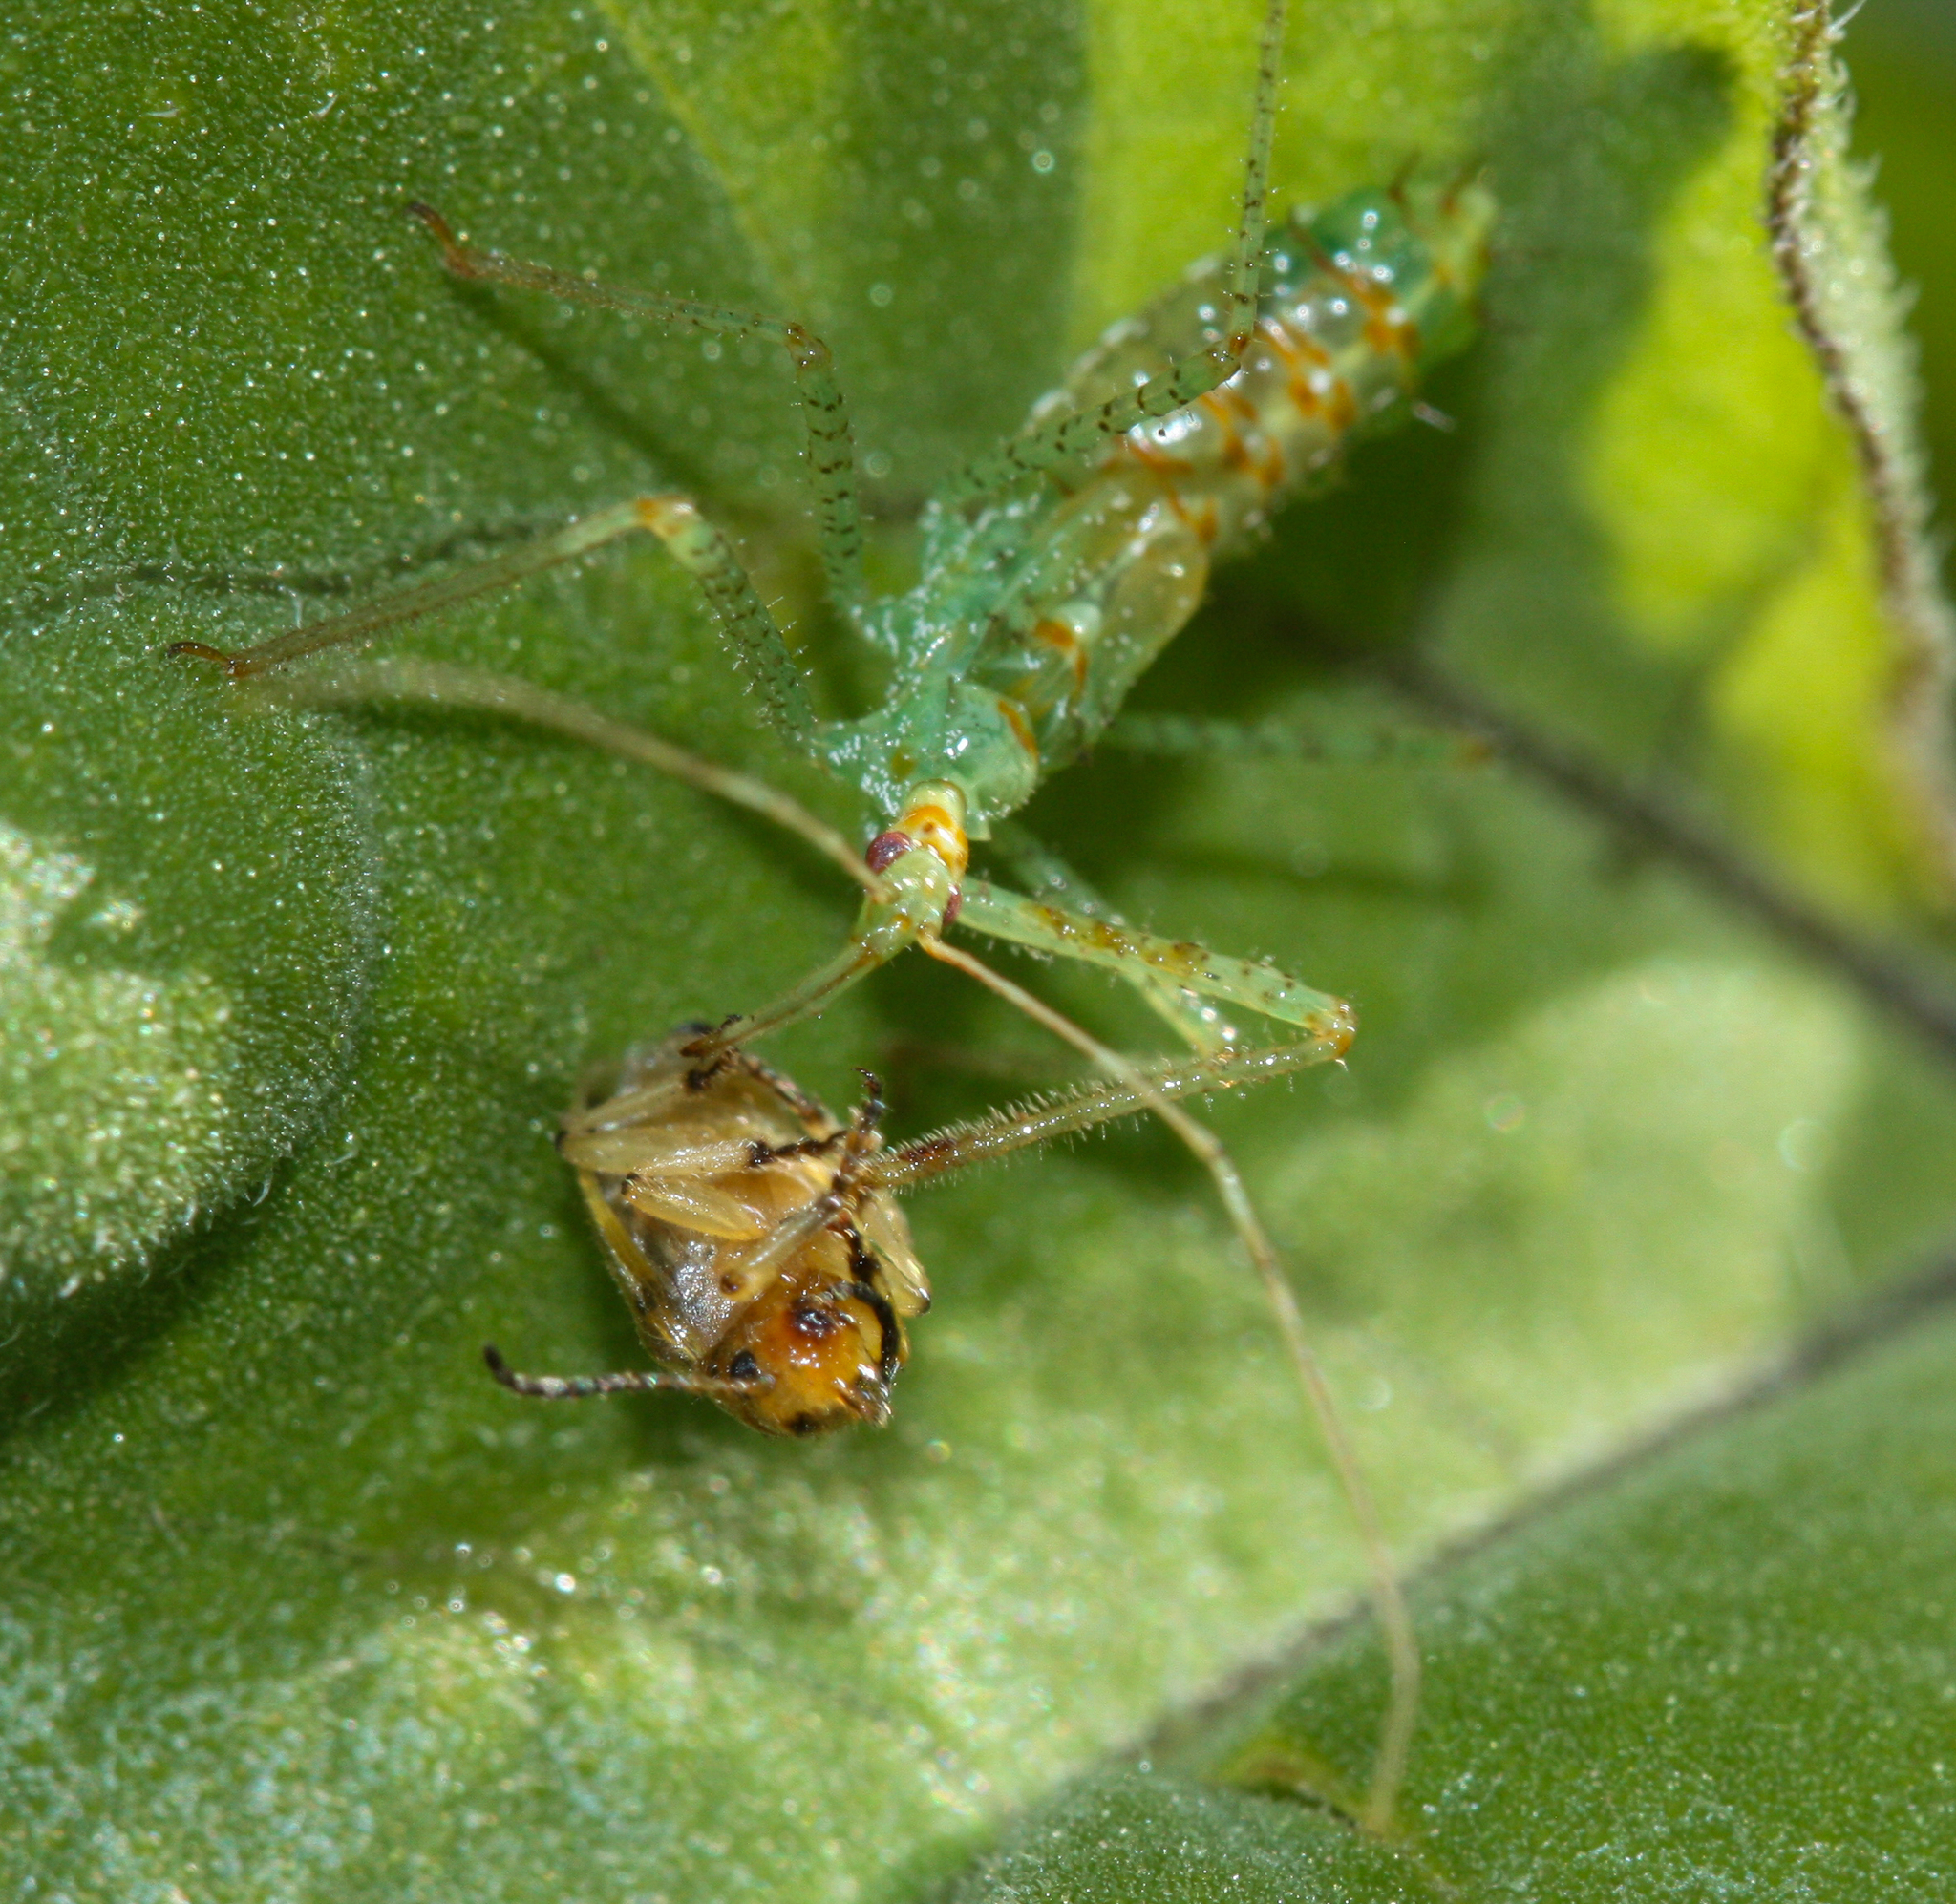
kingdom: Animalia
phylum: Arthropoda
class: Insecta
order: Hemiptera
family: Reduviidae
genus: Zelus
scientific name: Zelus renardii
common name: Assassin bug
